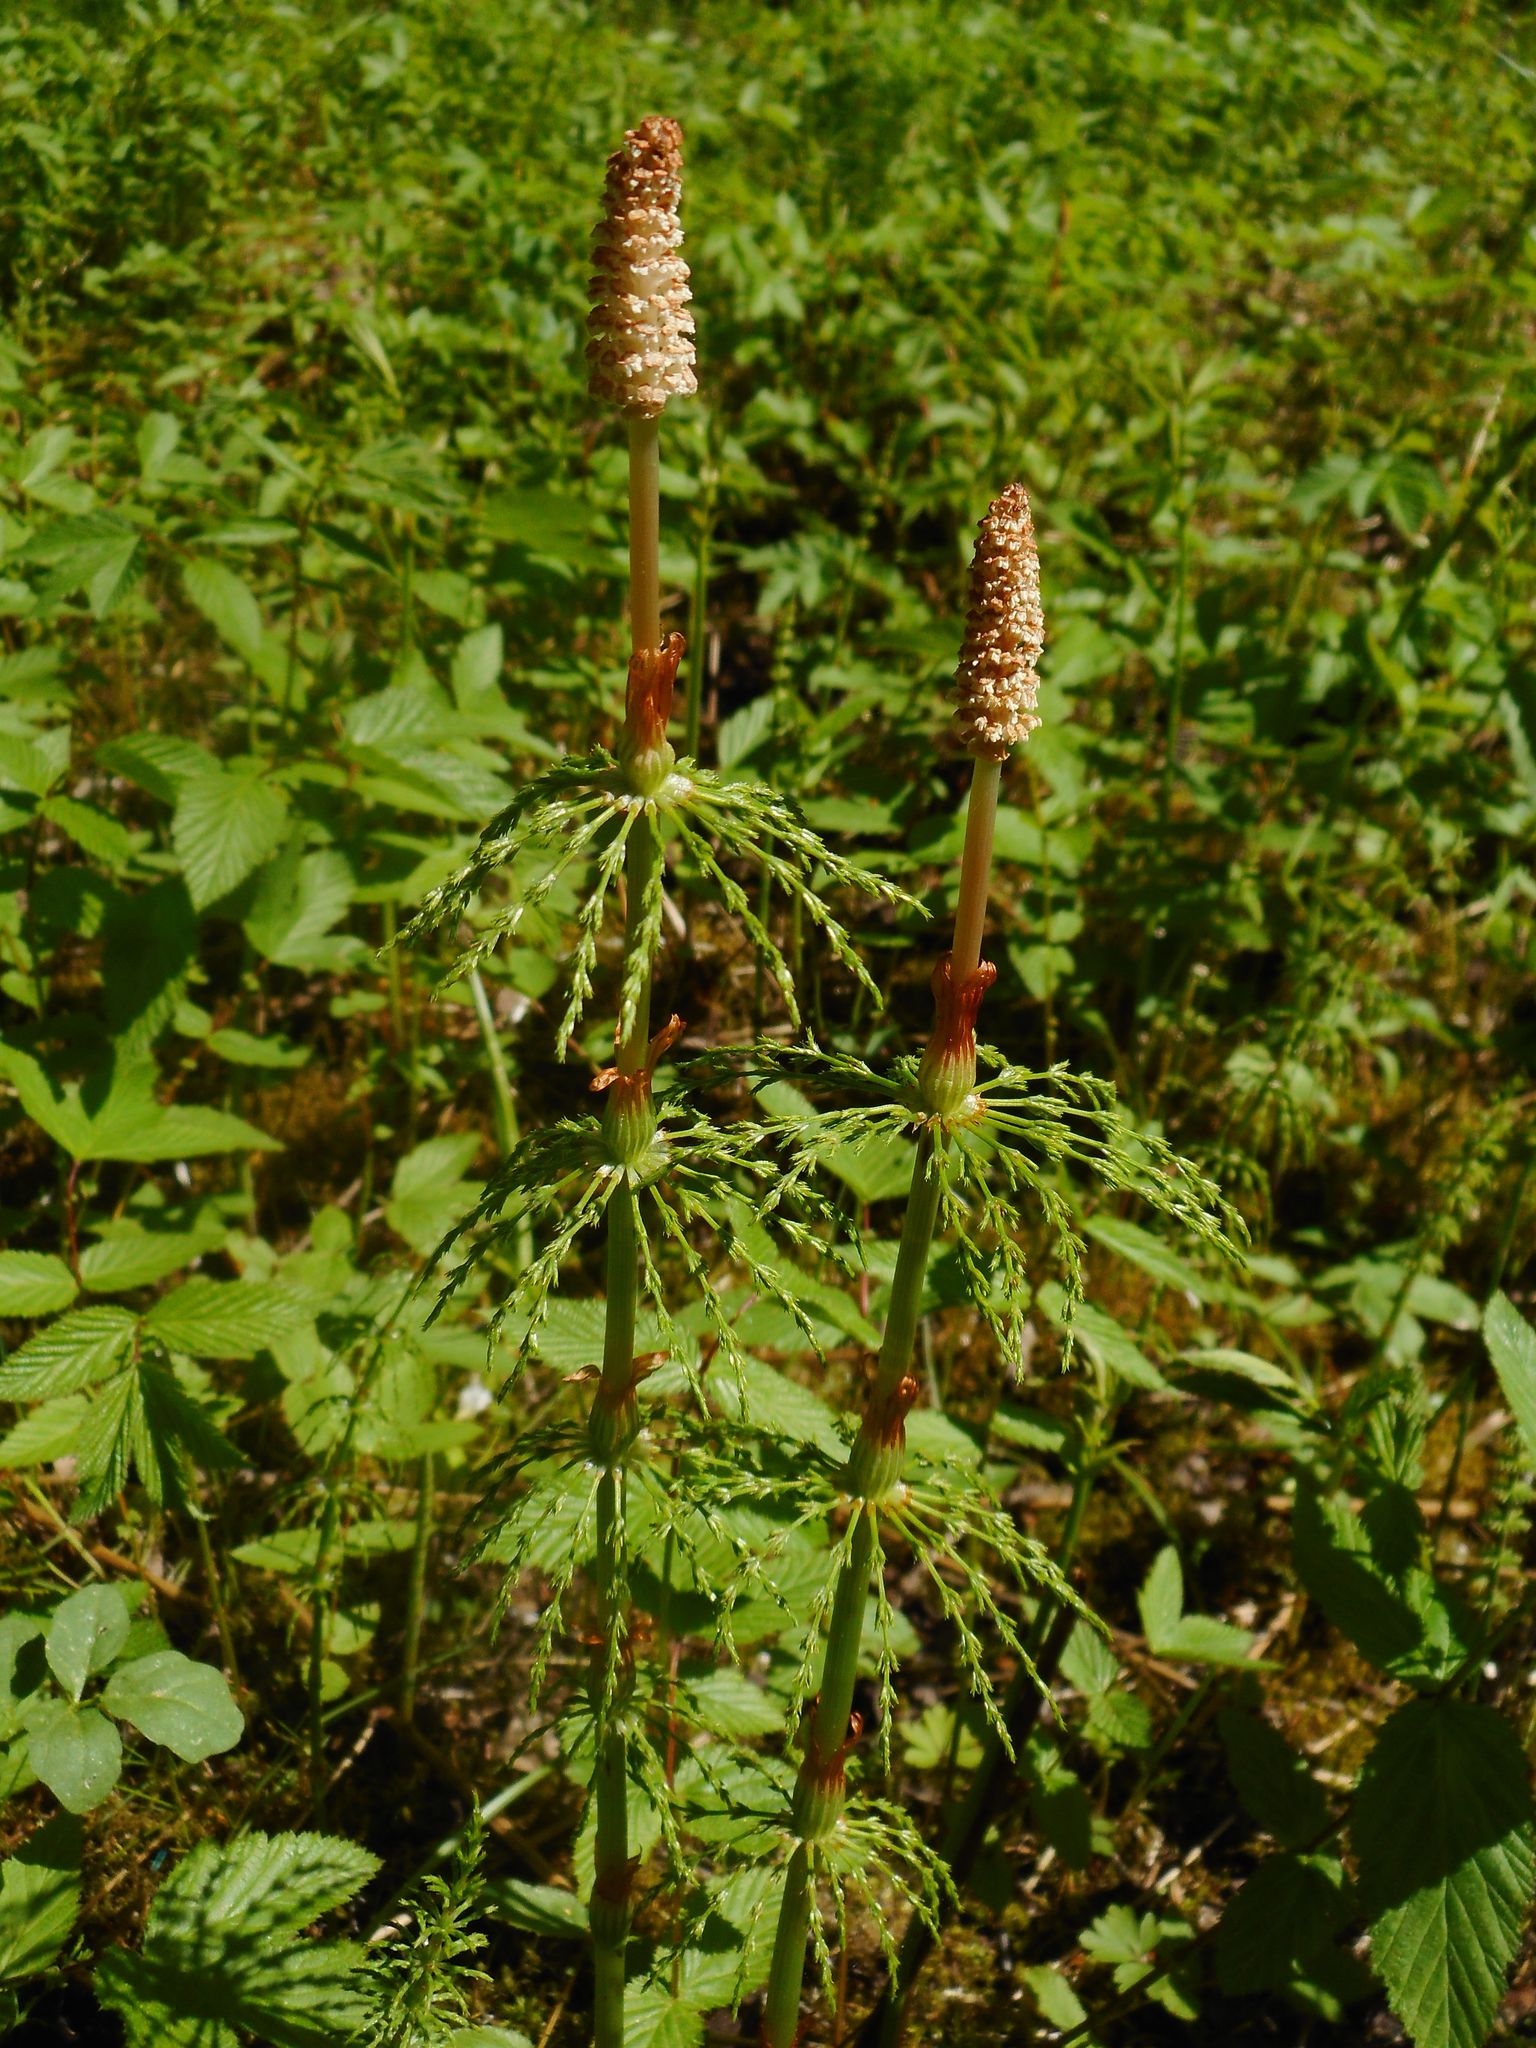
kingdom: Plantae
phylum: Tracheophyta
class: Polypodiopsida
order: Equisetales
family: Equisetaceae
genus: Equisetum
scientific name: Equisetum sylvaticum
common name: Wood horsetail
